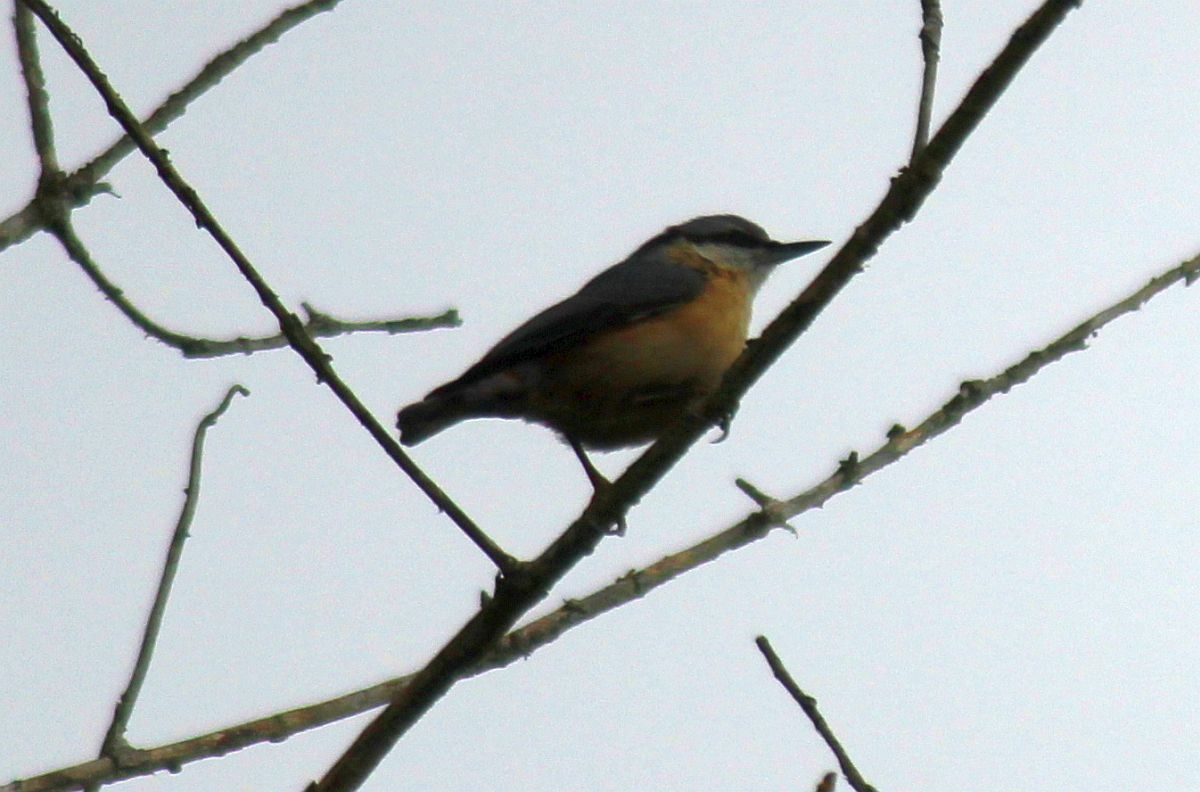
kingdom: Animalia
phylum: Chordata
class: Aves
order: Passeriformes
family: Sittidae
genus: Sitta
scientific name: Sitta europaea
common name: Eurasian nuthatch
